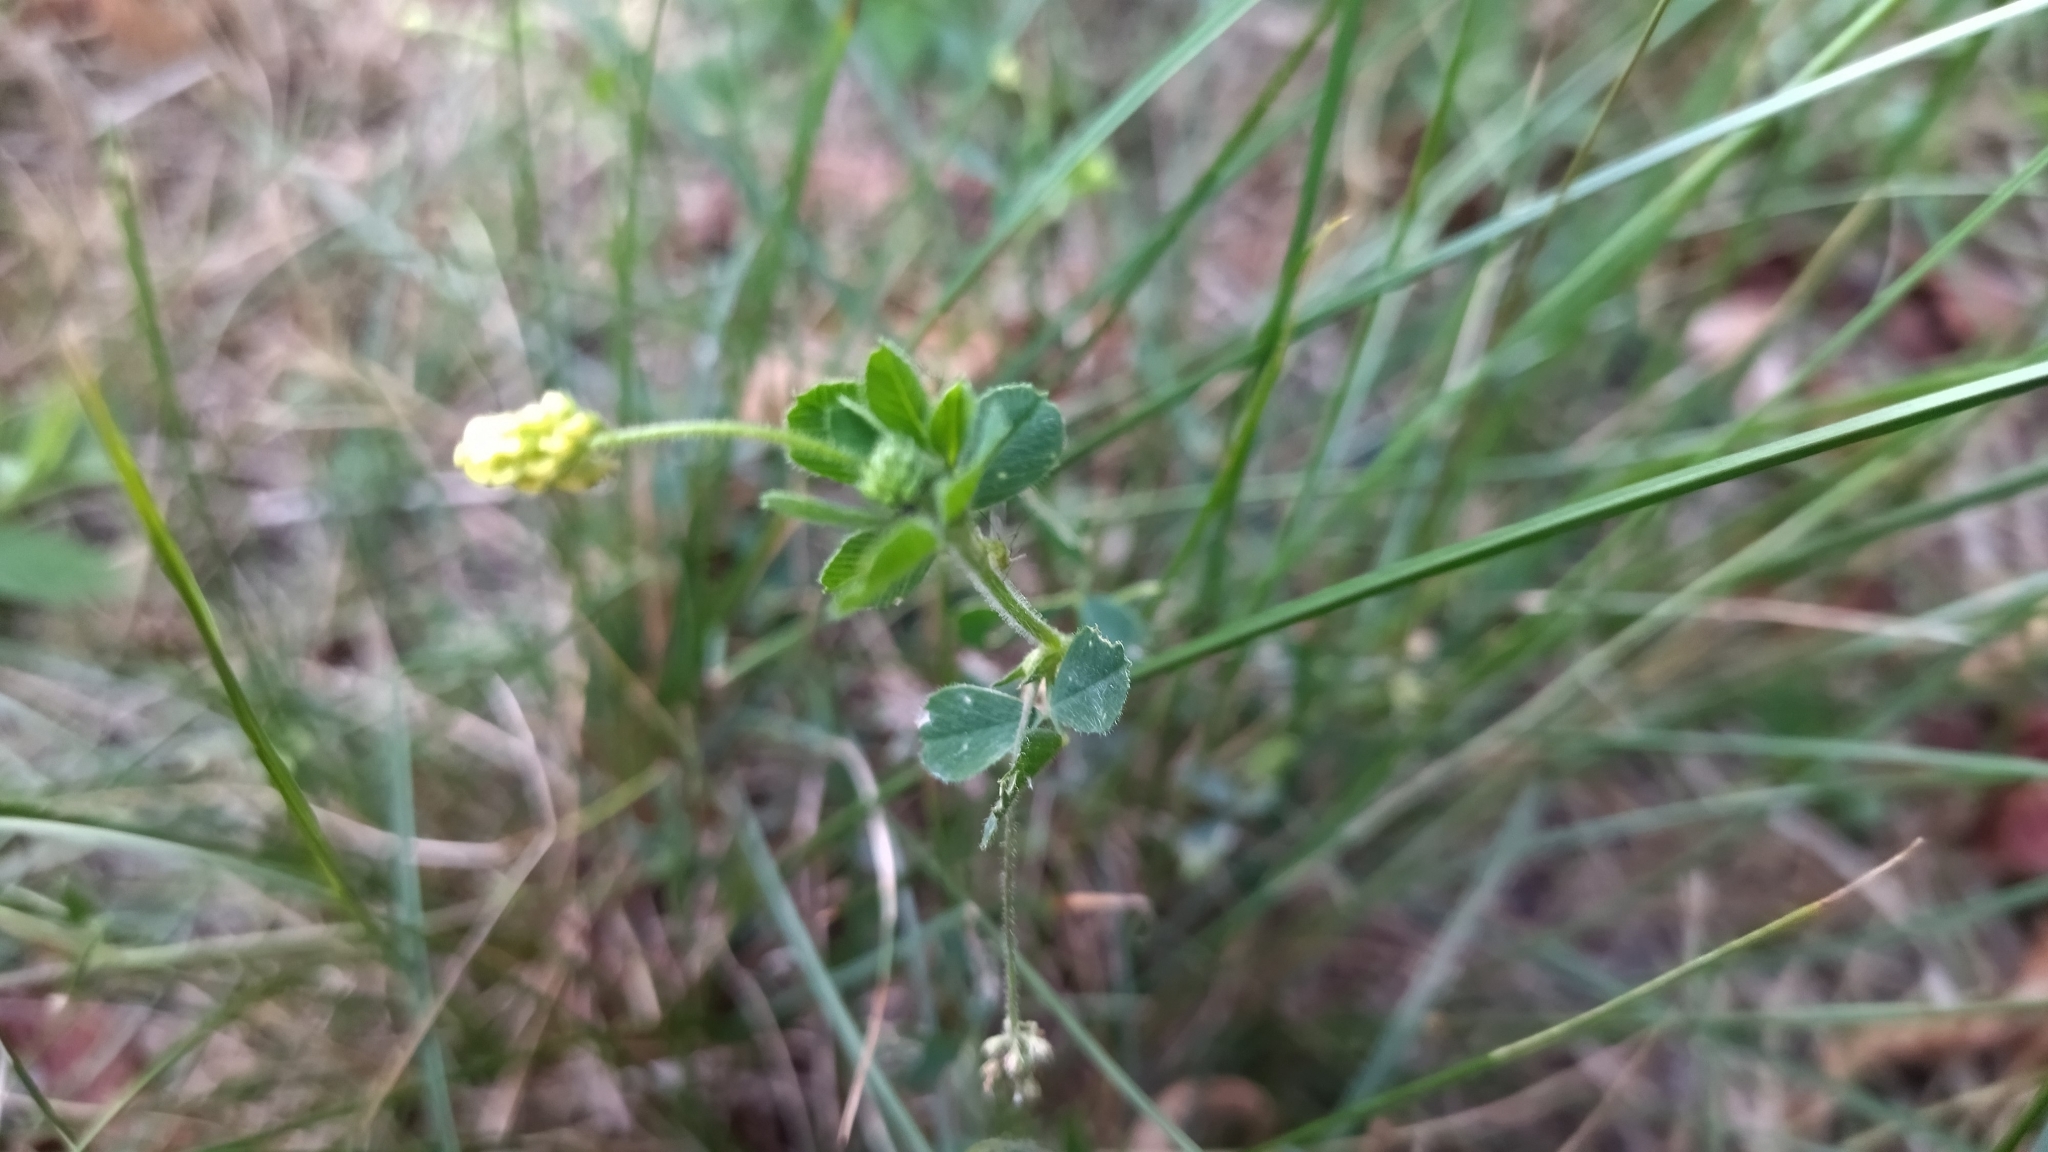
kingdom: Plantae
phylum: Tracheophyta
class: Magnoliopsida
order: Fabales
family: Fabaceae
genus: Medicago
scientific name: Medicago lupulina
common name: Black medick
